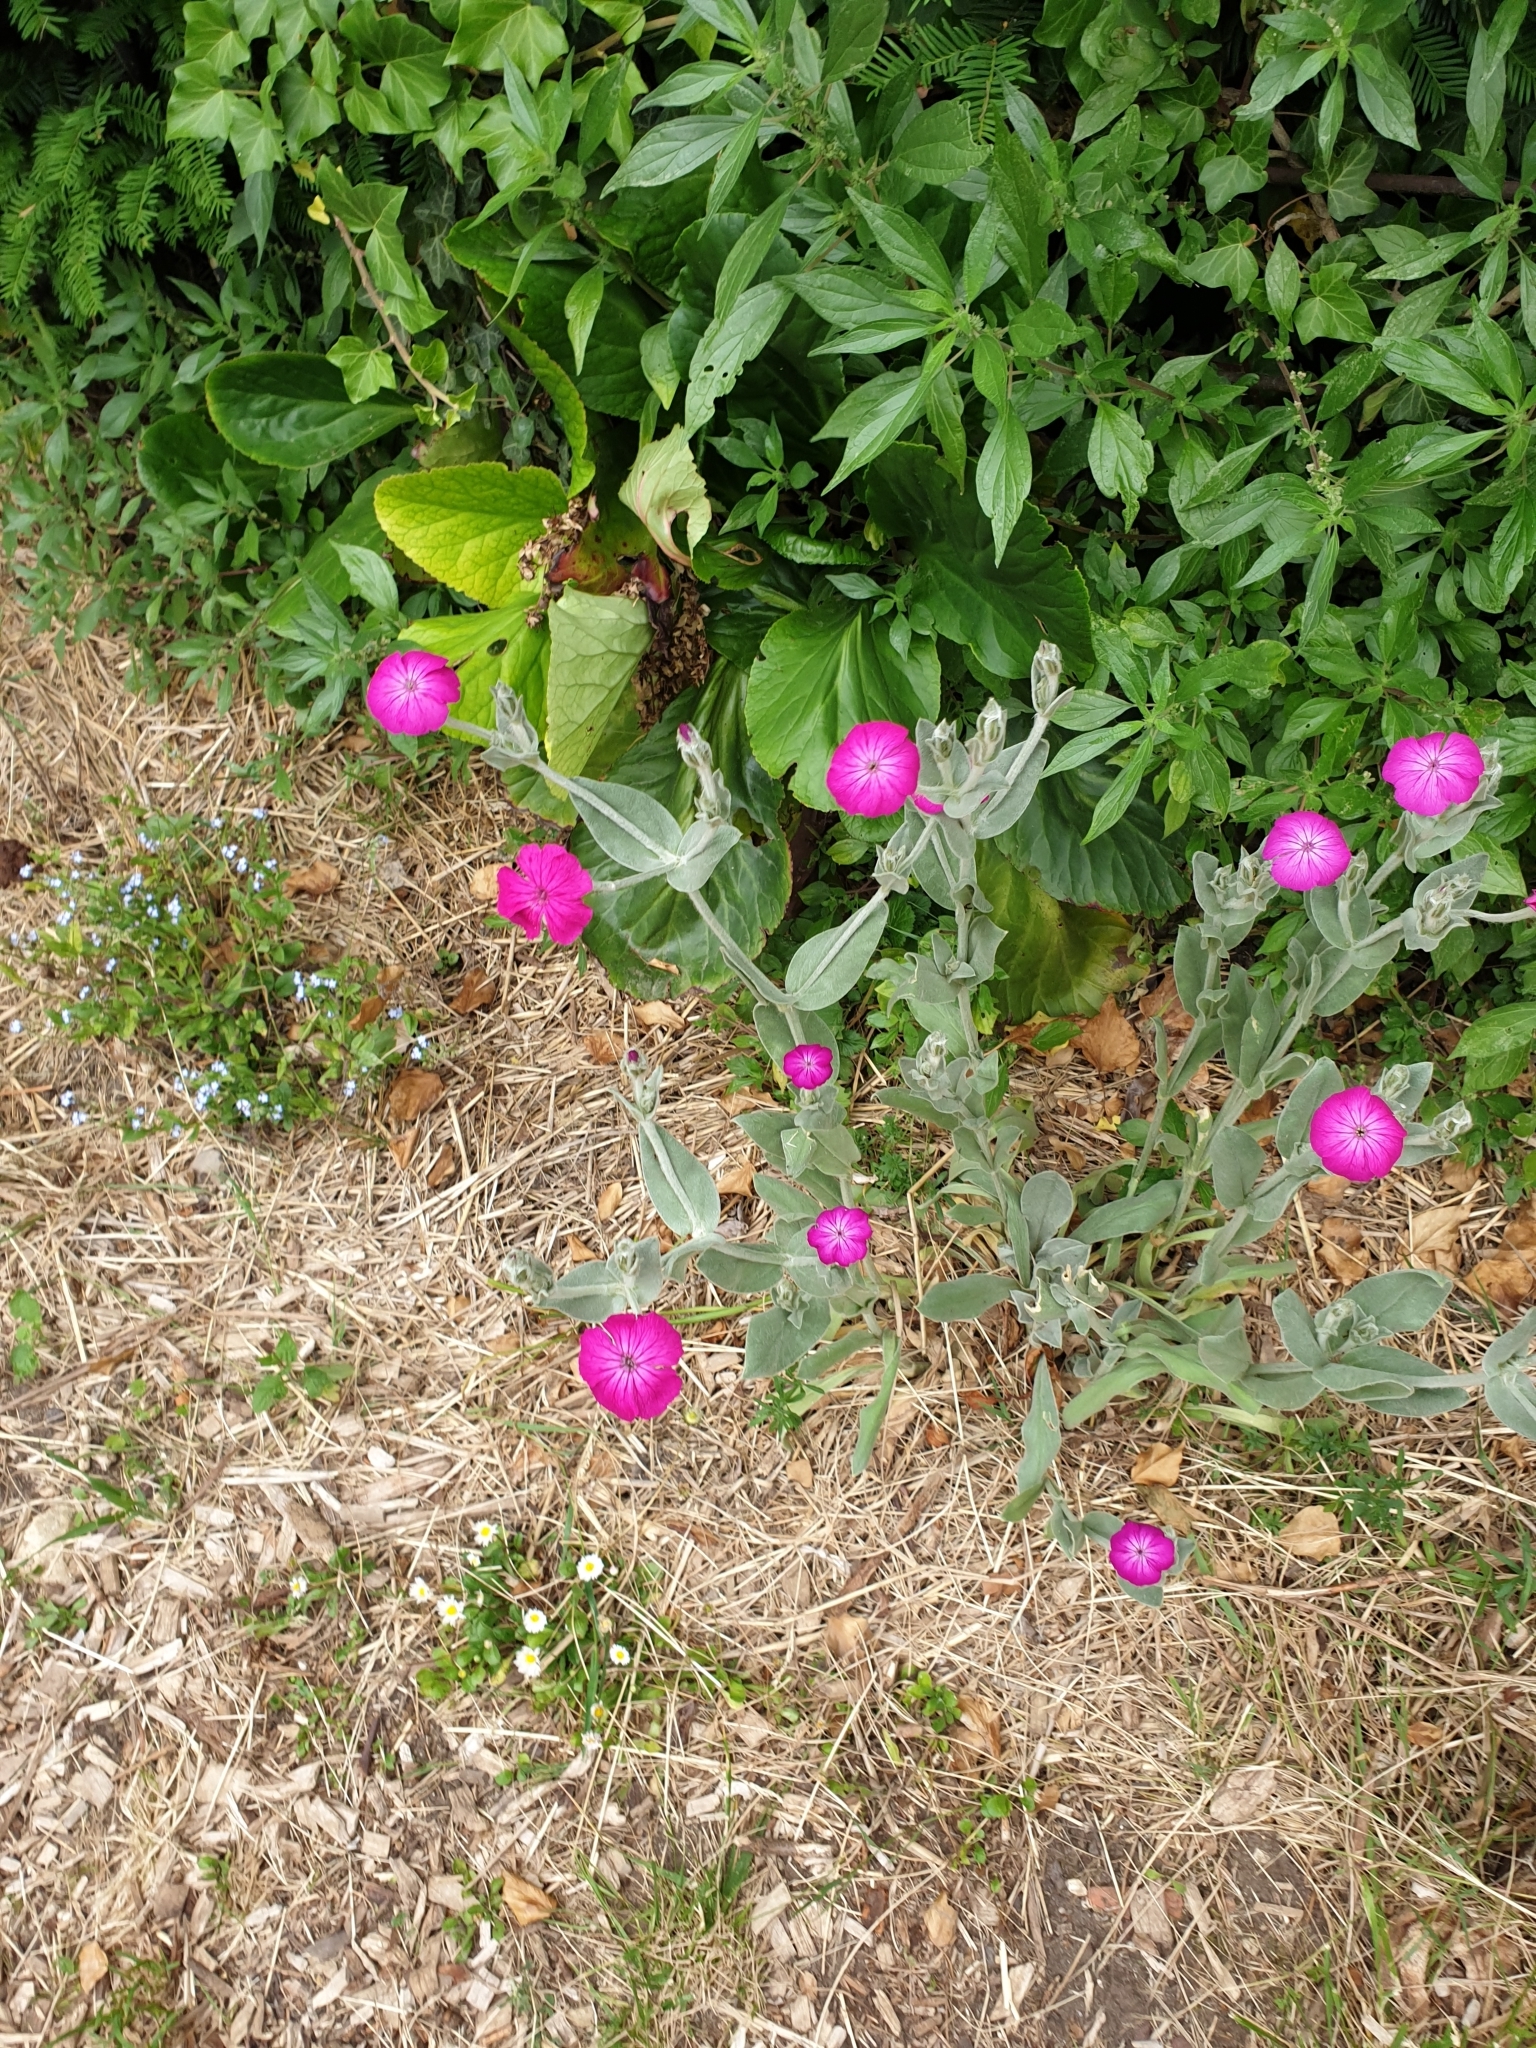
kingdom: Plantae
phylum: Tracheophyta
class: Magnoliopsida
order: Caryophyllales
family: Caryophyllaceae
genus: Silene
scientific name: Silene coronaria
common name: Rose campion
